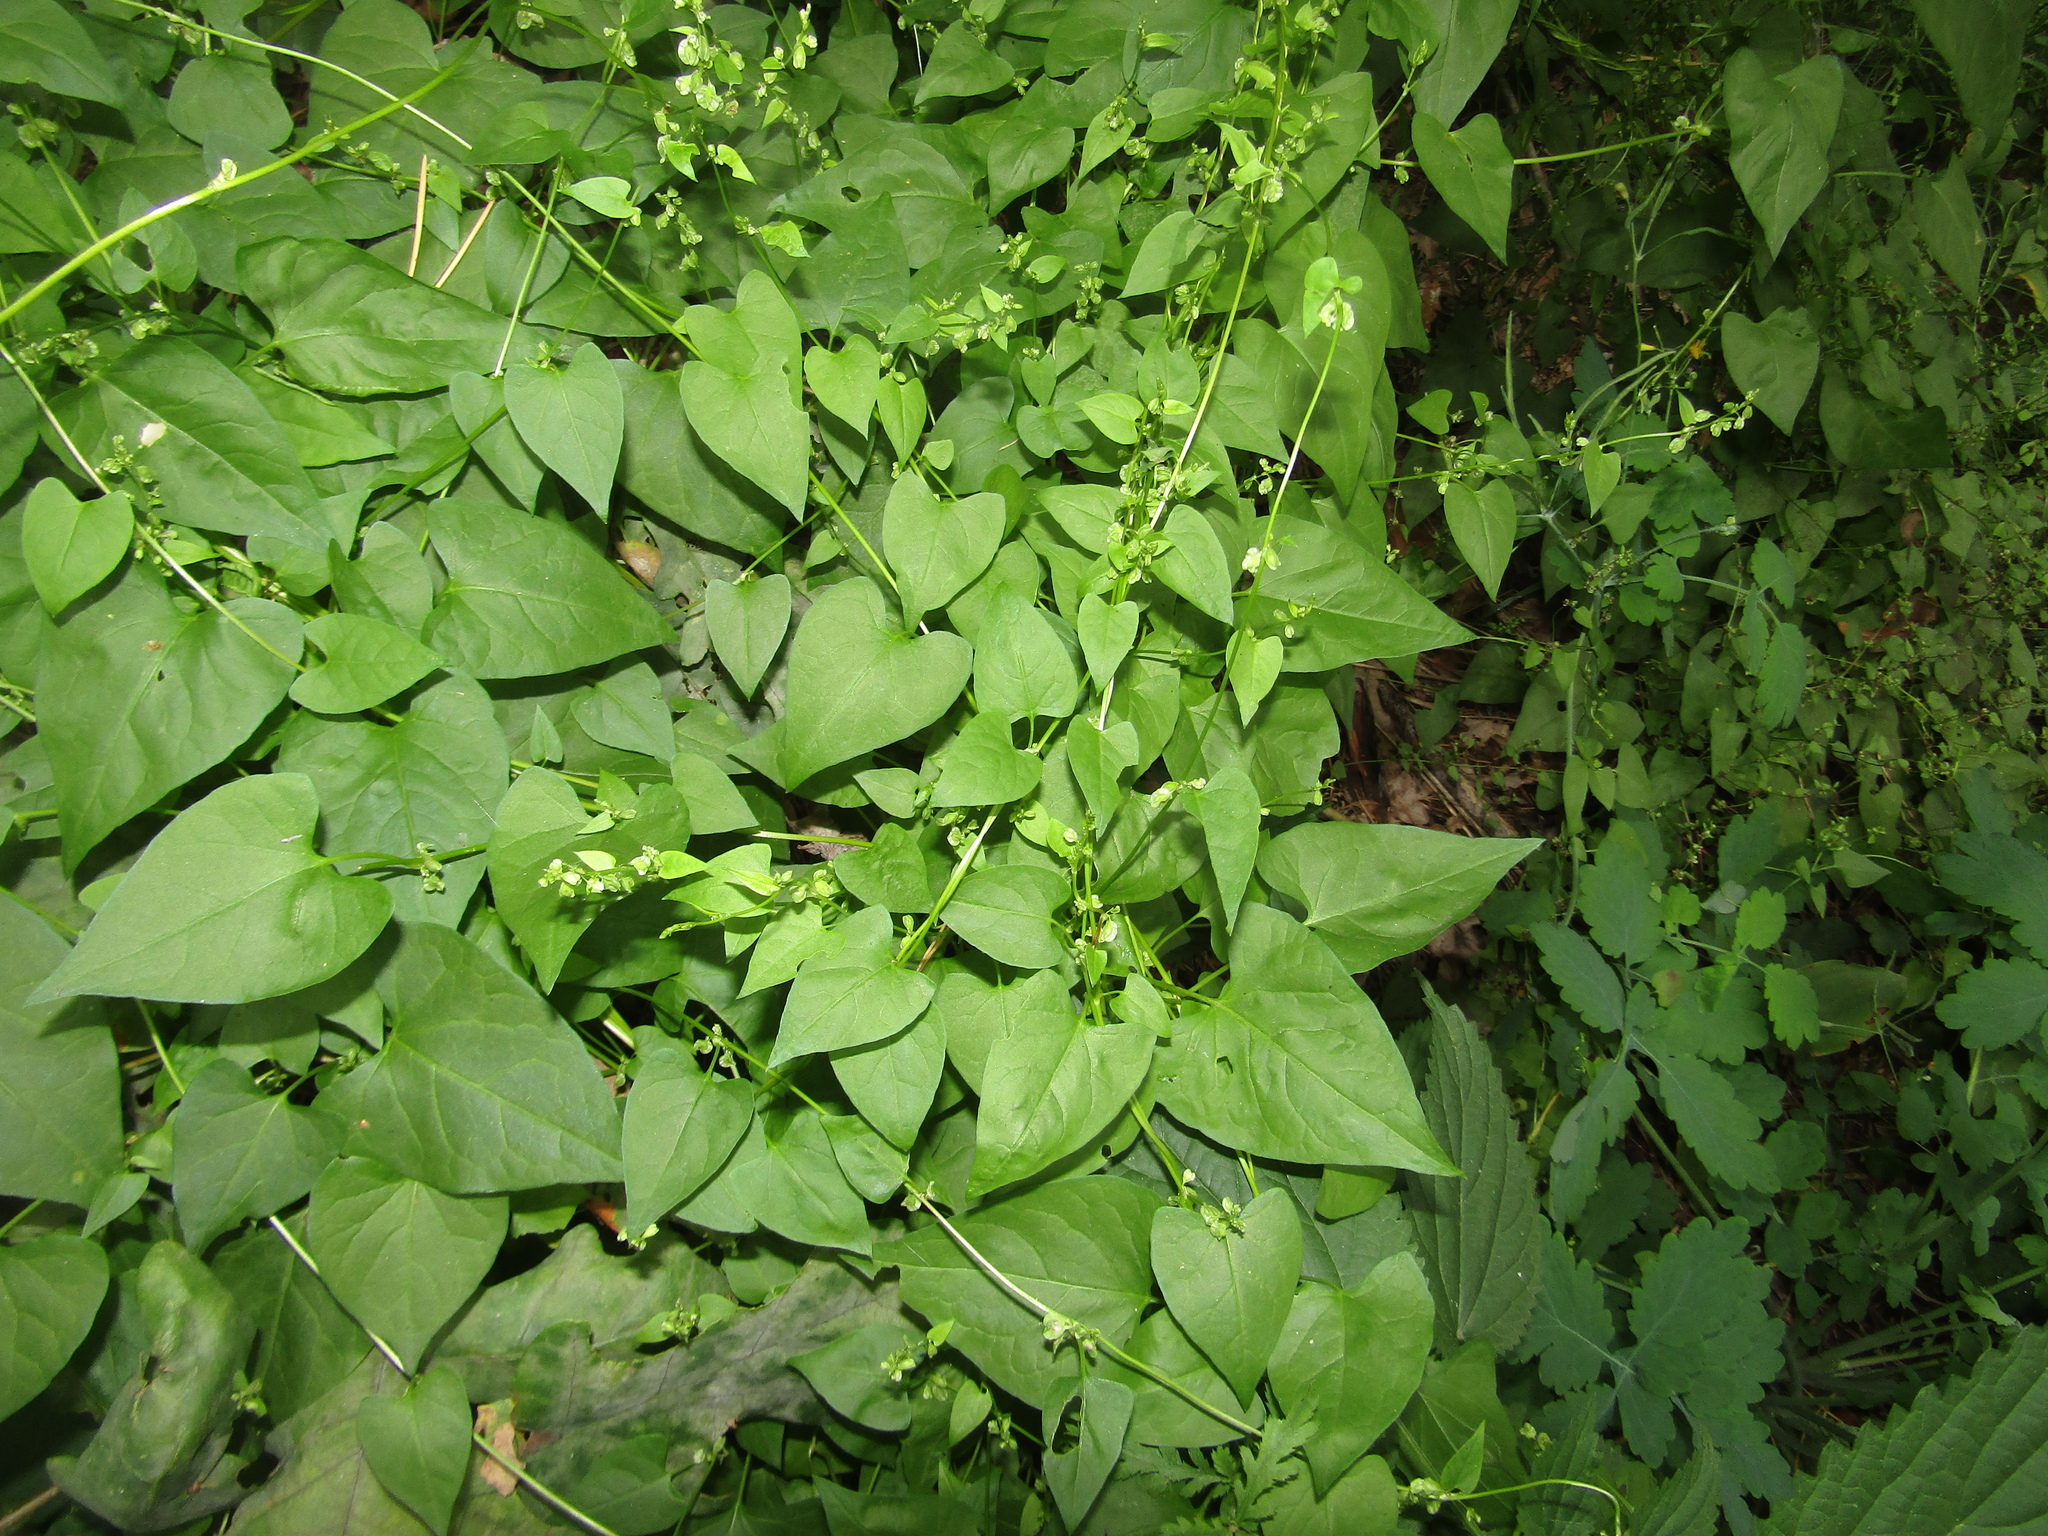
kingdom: Plantae
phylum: Tracheophyta
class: Magnoliopsida
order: Caryophyllales
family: Polygonaceae
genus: Fallopia
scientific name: Fallopia dumetorum
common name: Copse-bindweed
